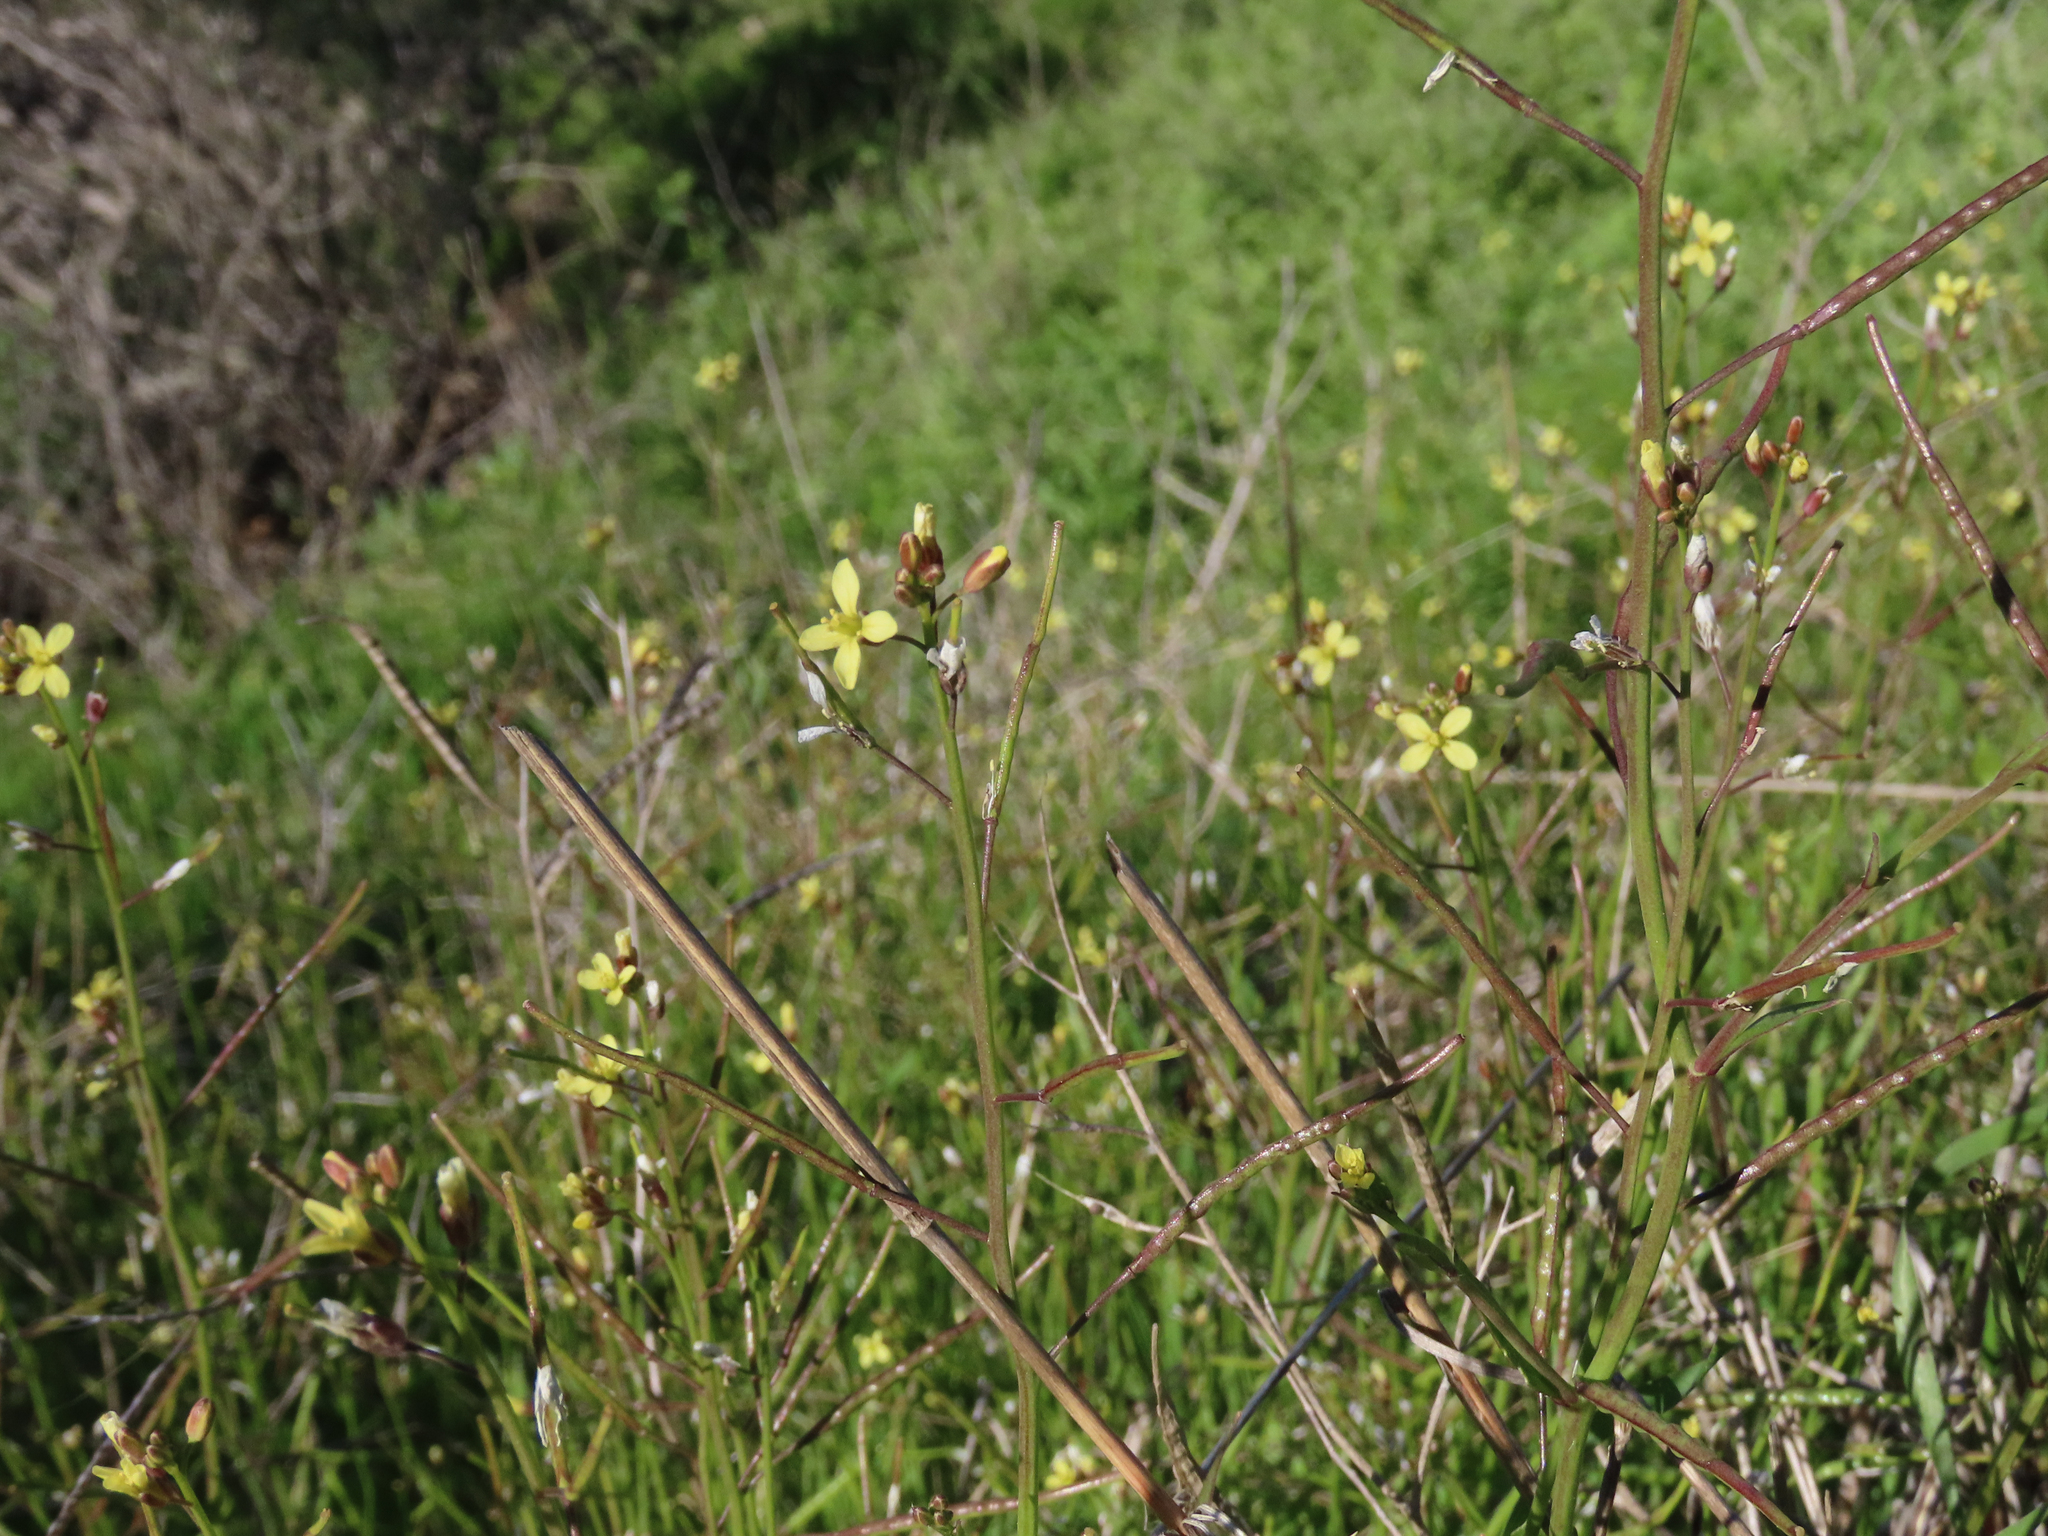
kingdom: Plantae
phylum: Tracheophyta
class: Magnoliopsida
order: Brassicales
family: Brassicaceae
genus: Brassica
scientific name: Brassica tournefortii
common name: Pale cabbage
